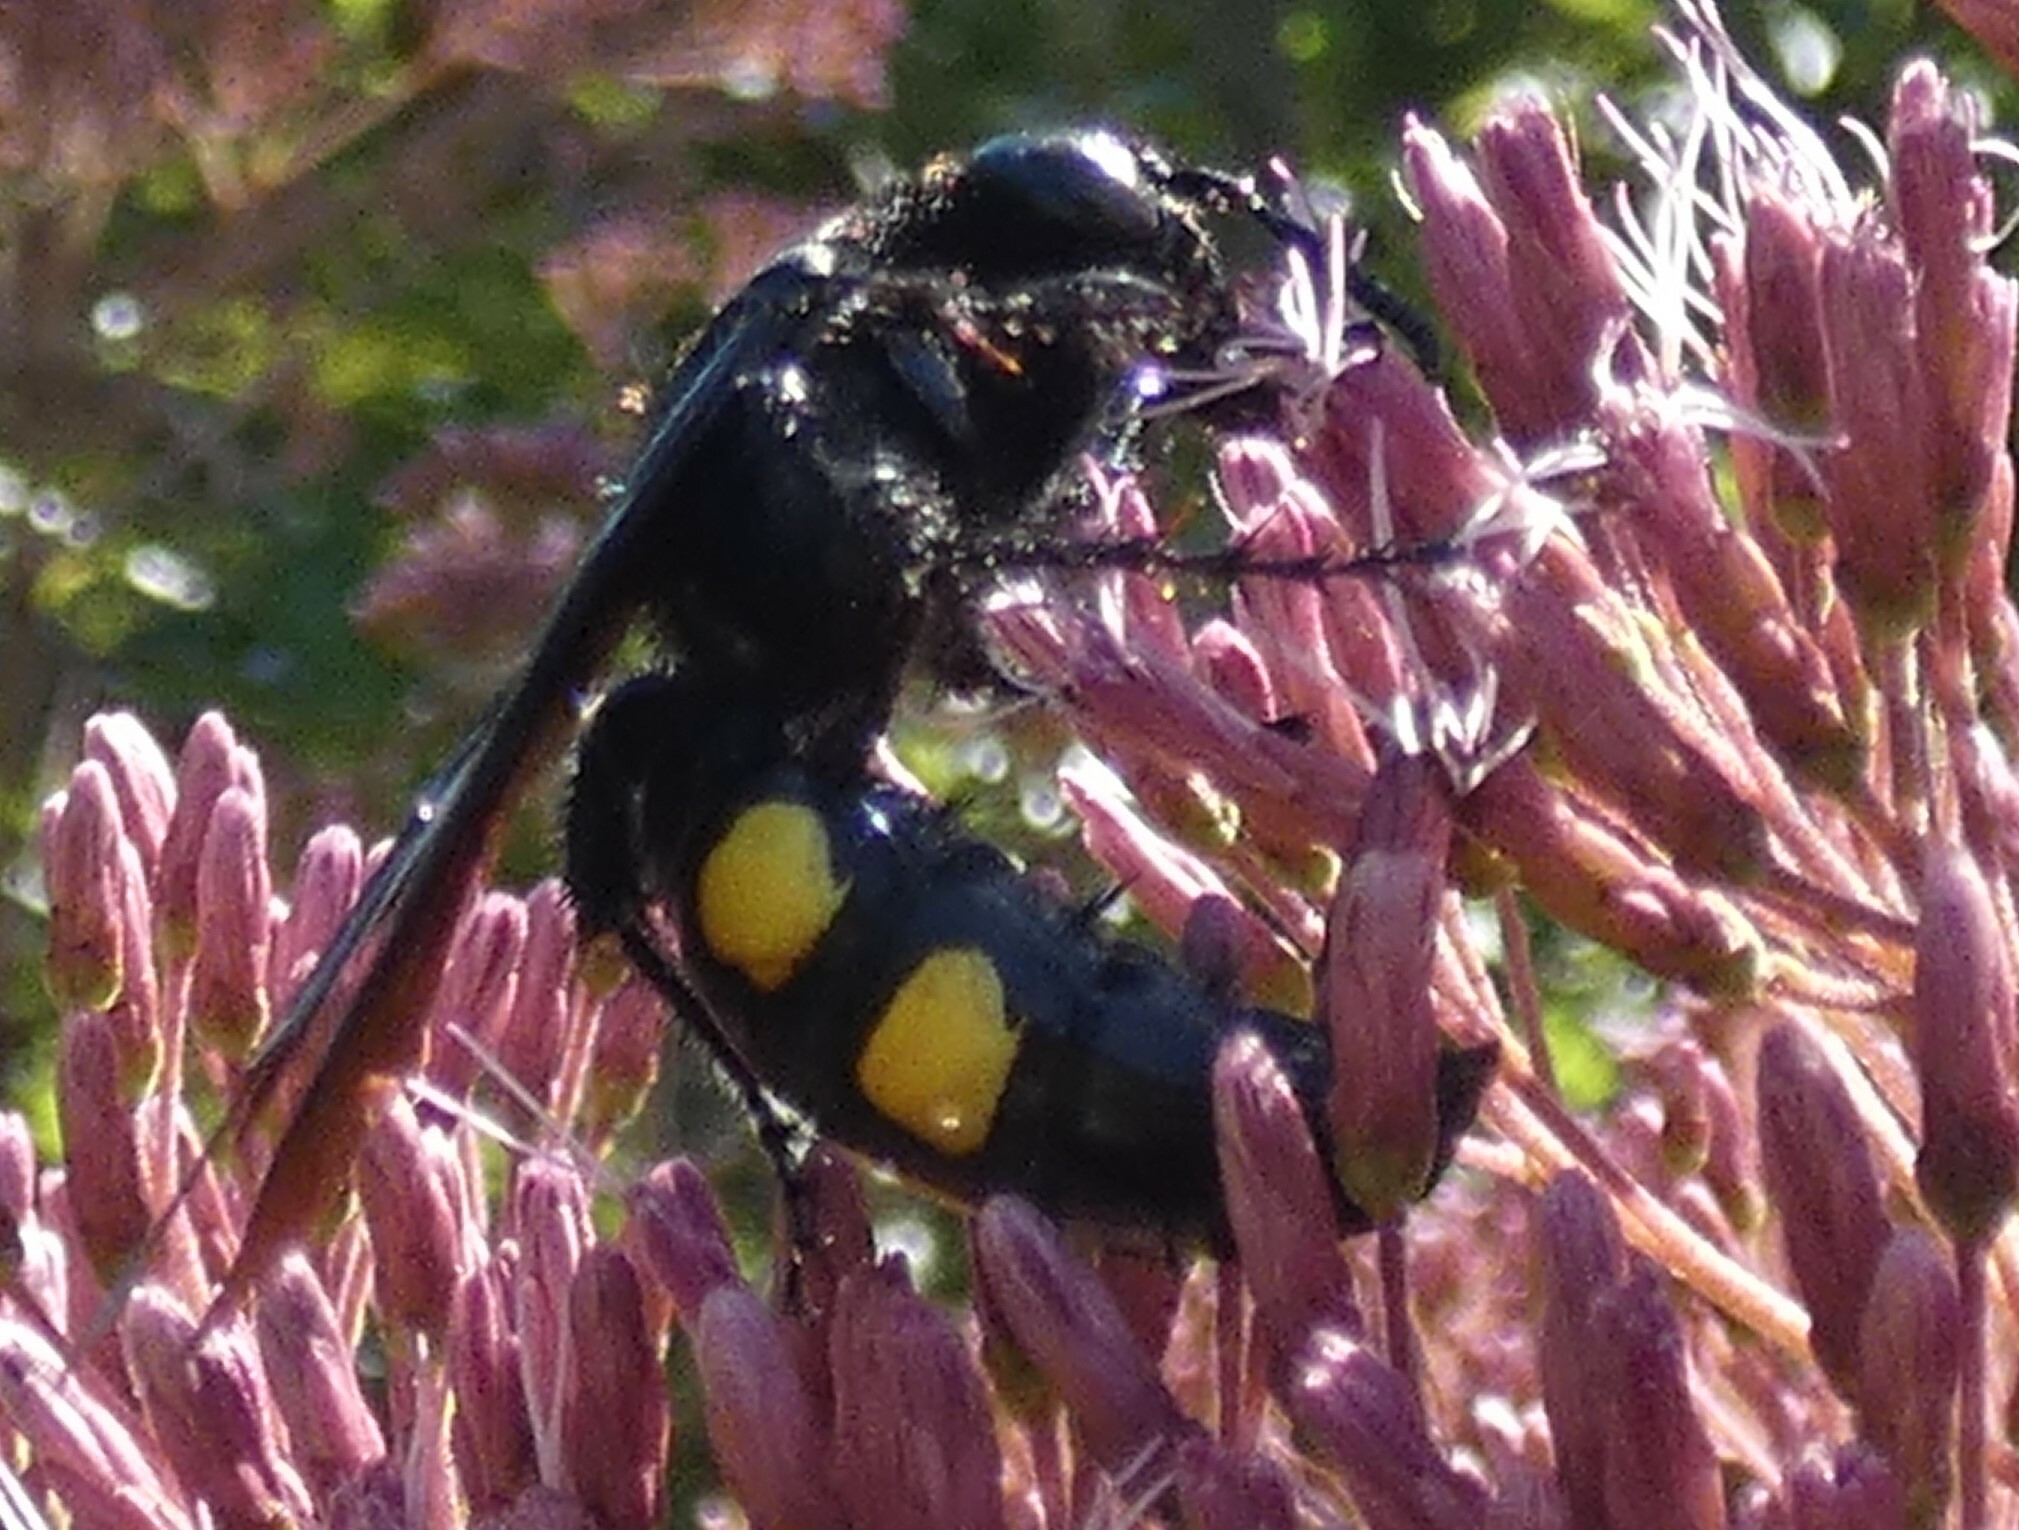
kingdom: Animalia
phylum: Arthropoda
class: Insecta
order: Hymenoptera
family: Scoliidae
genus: Pygodasis
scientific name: Pygodasis
